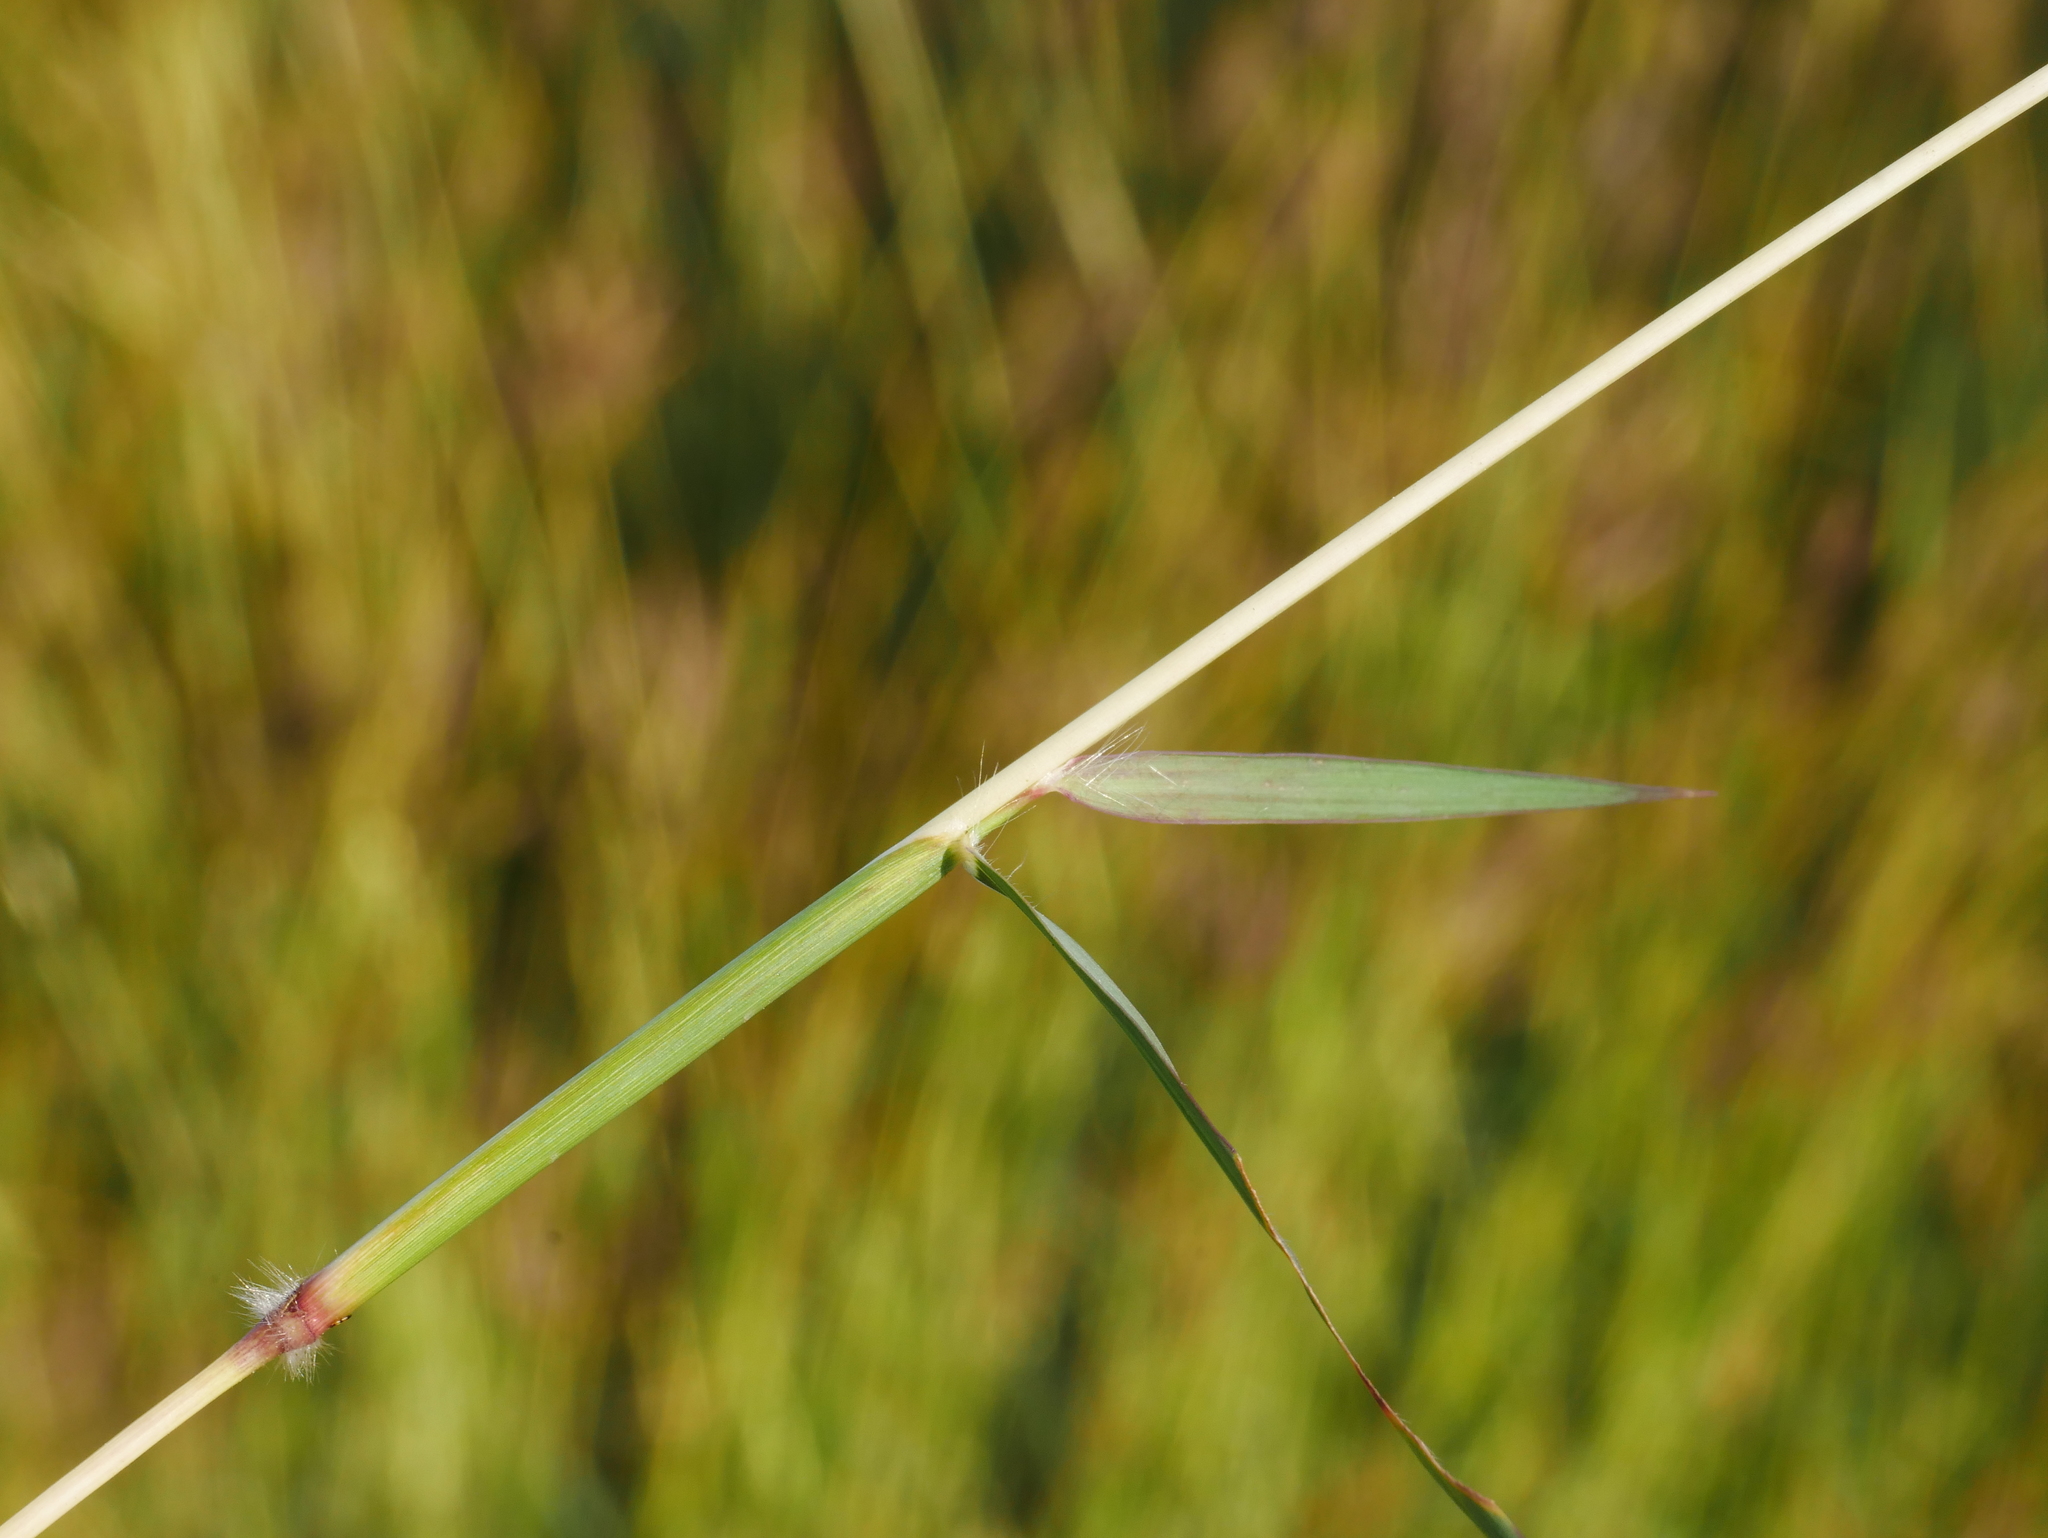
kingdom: Plantae
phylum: Tracheophyta
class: Liliopsida
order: Poales
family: Poaceae
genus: Dichanthium
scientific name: Dichanthium annulatum
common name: Kleberg's bluestem
